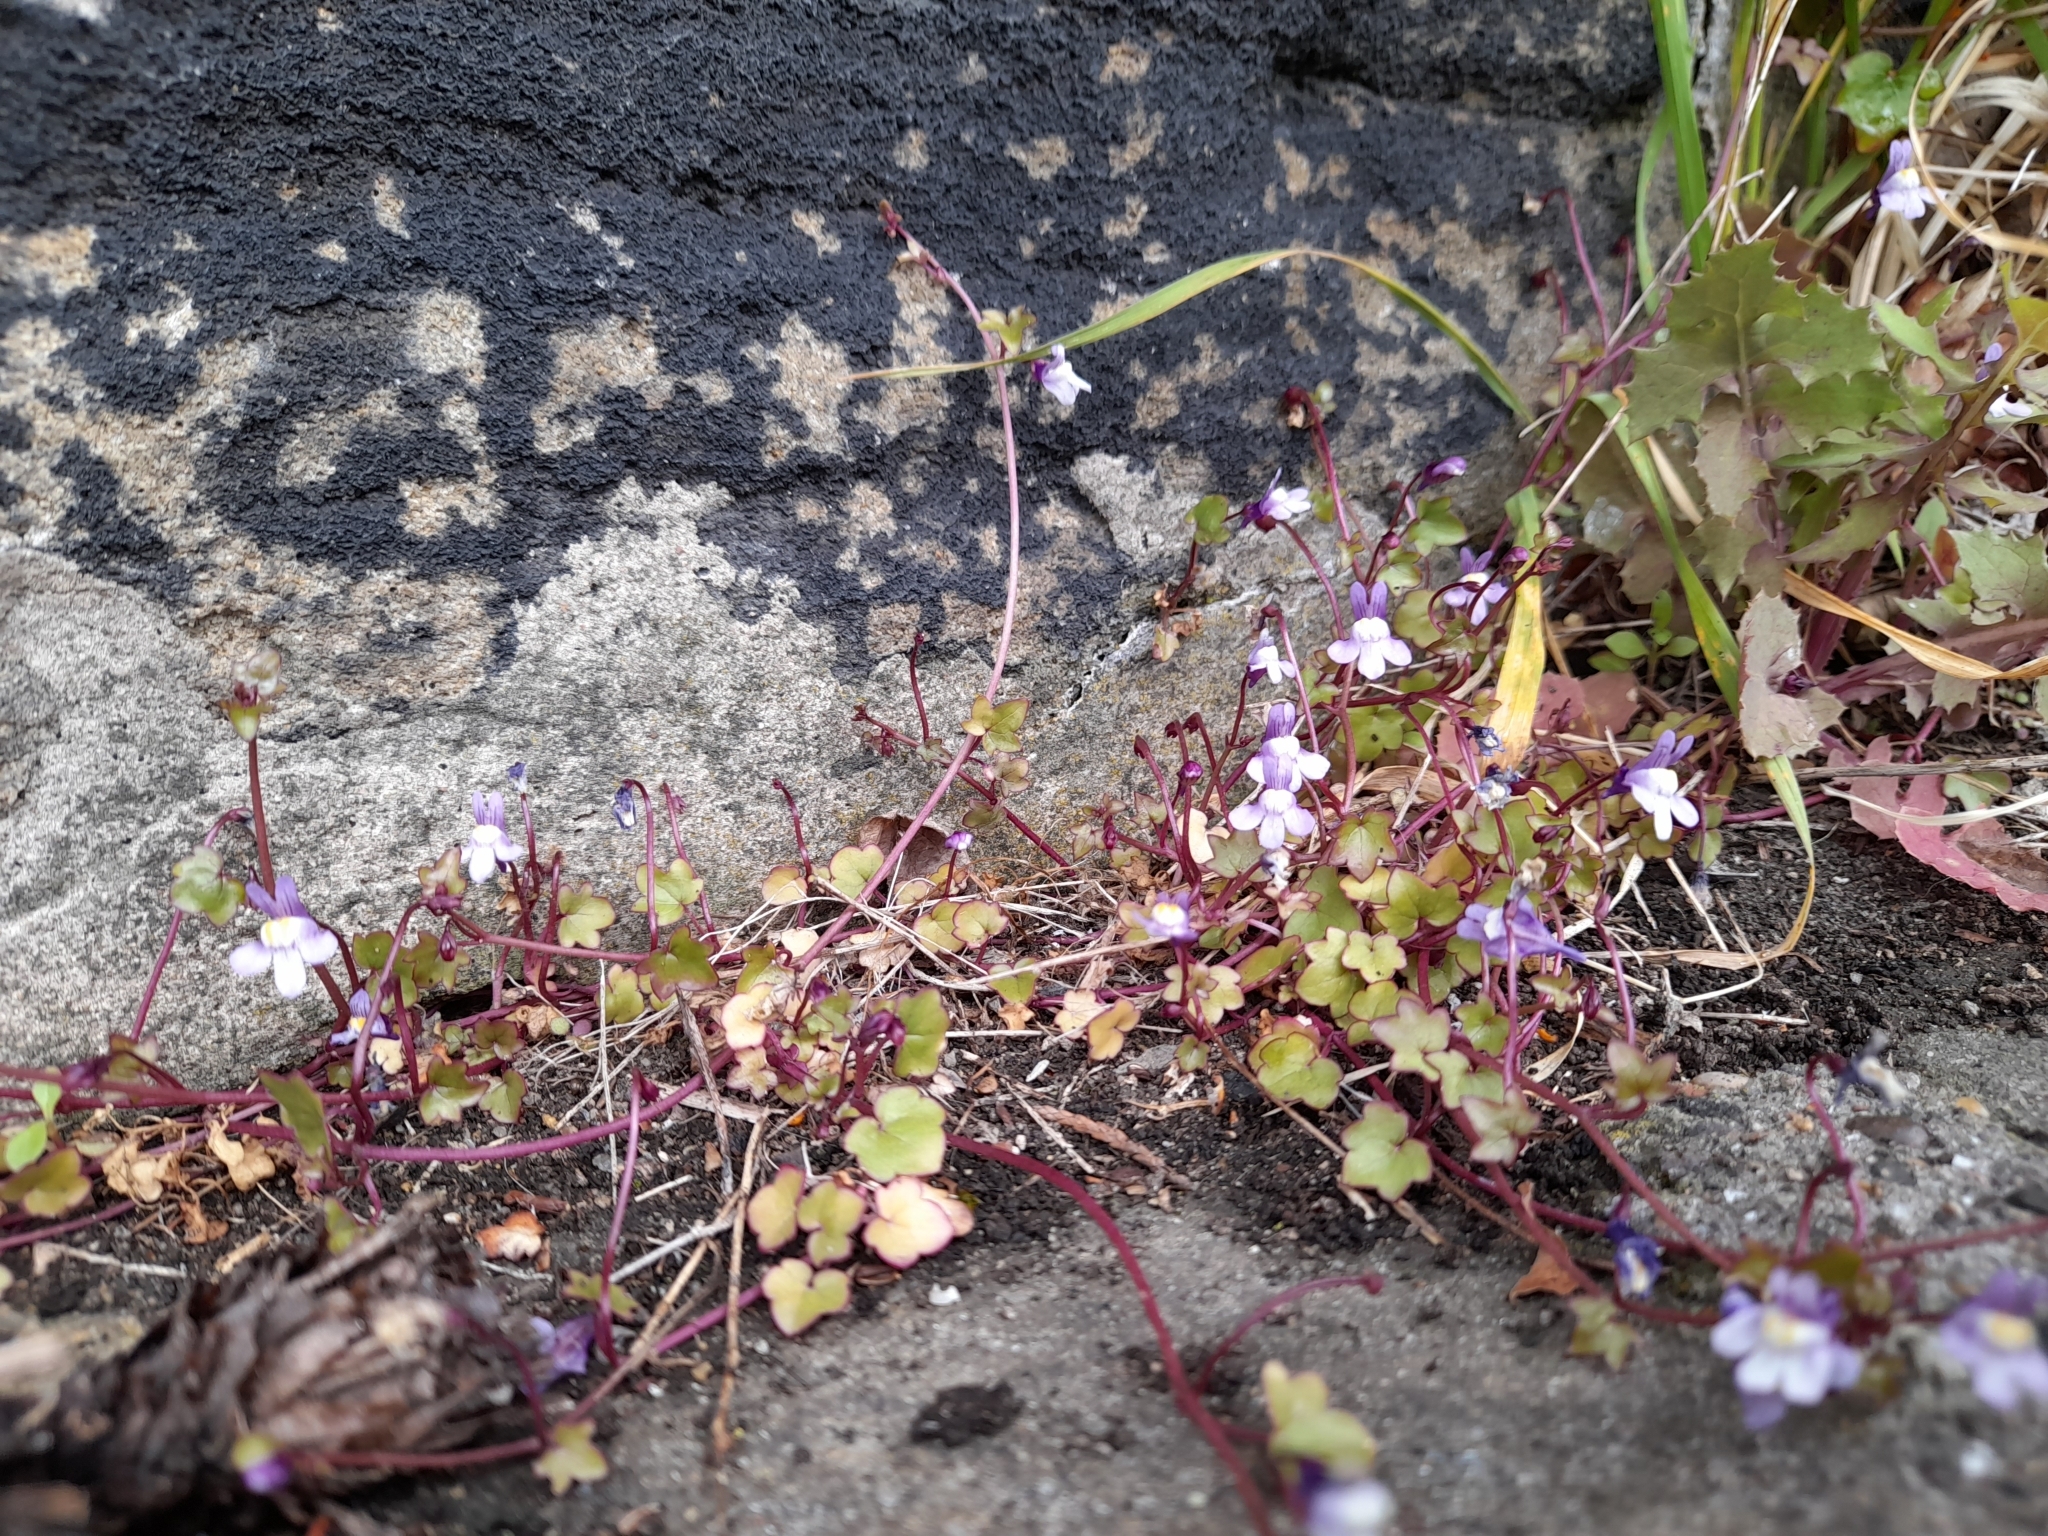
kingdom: Plantae
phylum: Tracheophyta
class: Magnoliopsida
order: Lamiales
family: Plantaginaceae
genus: Cymbalaria
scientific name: Cymbalaria muralis
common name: Ivy-leaved toadflax
